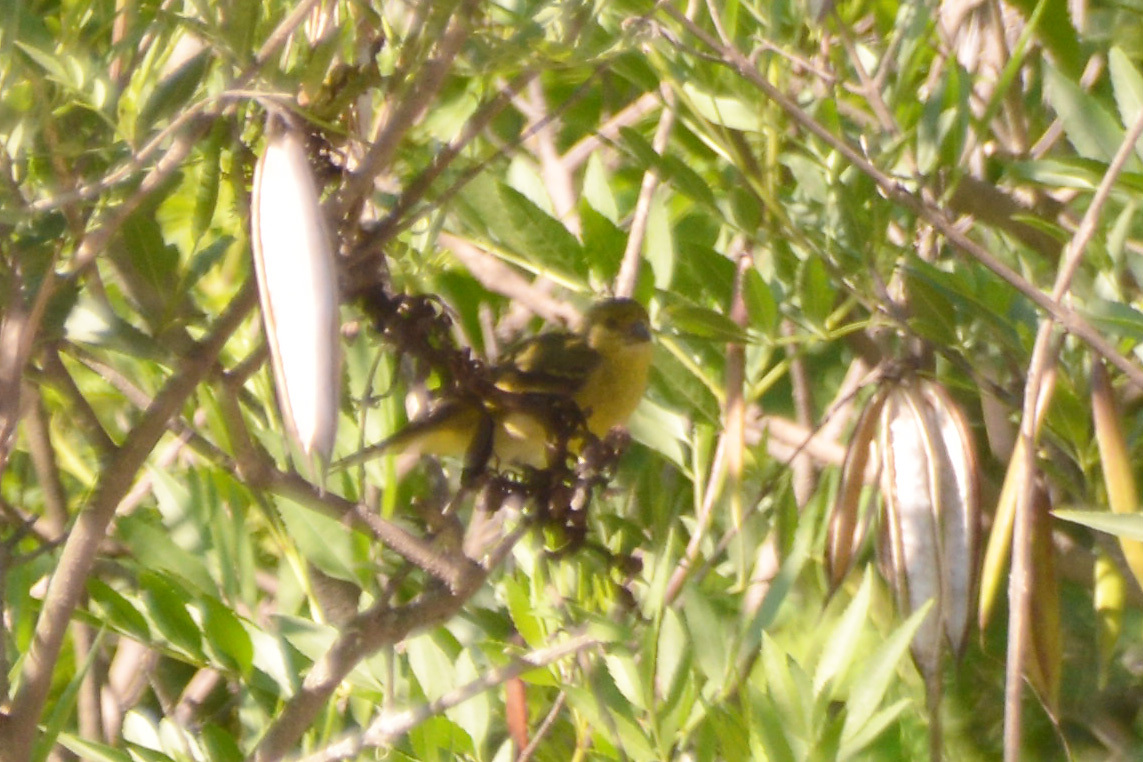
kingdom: Animalia
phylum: Chordata
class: Aves
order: Passeriformes
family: Fringillidae
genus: Spinus
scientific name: Spinus magellanicus
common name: Hooded siskin
